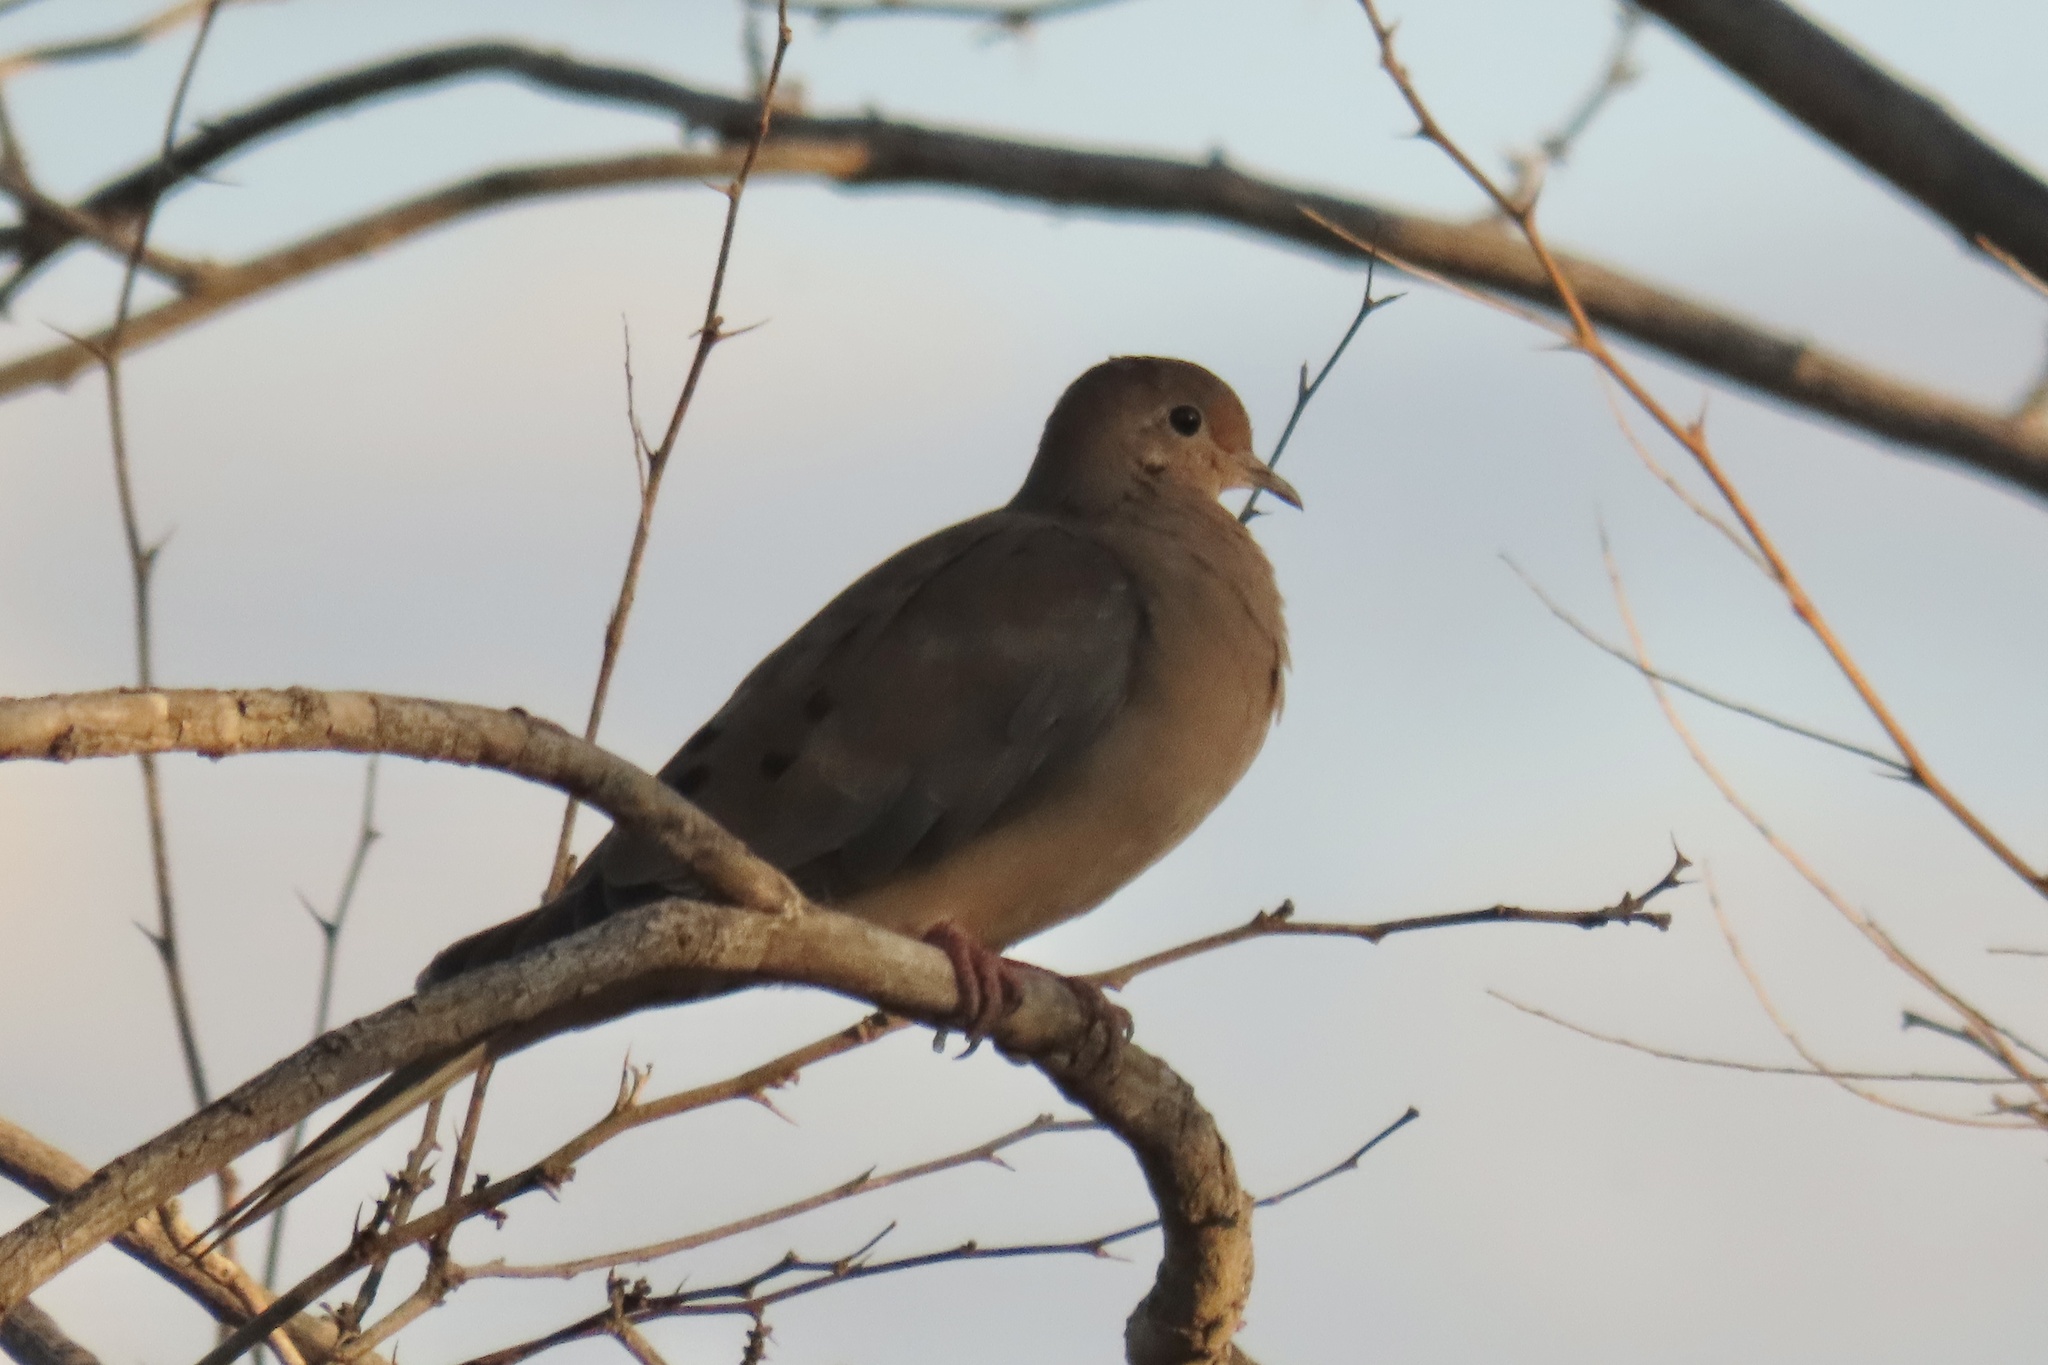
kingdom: Animalia
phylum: Chordata
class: Aves
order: Columbiformes
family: Columbidae
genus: Zenaida
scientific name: Zenaida macroura
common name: Mourning dove
